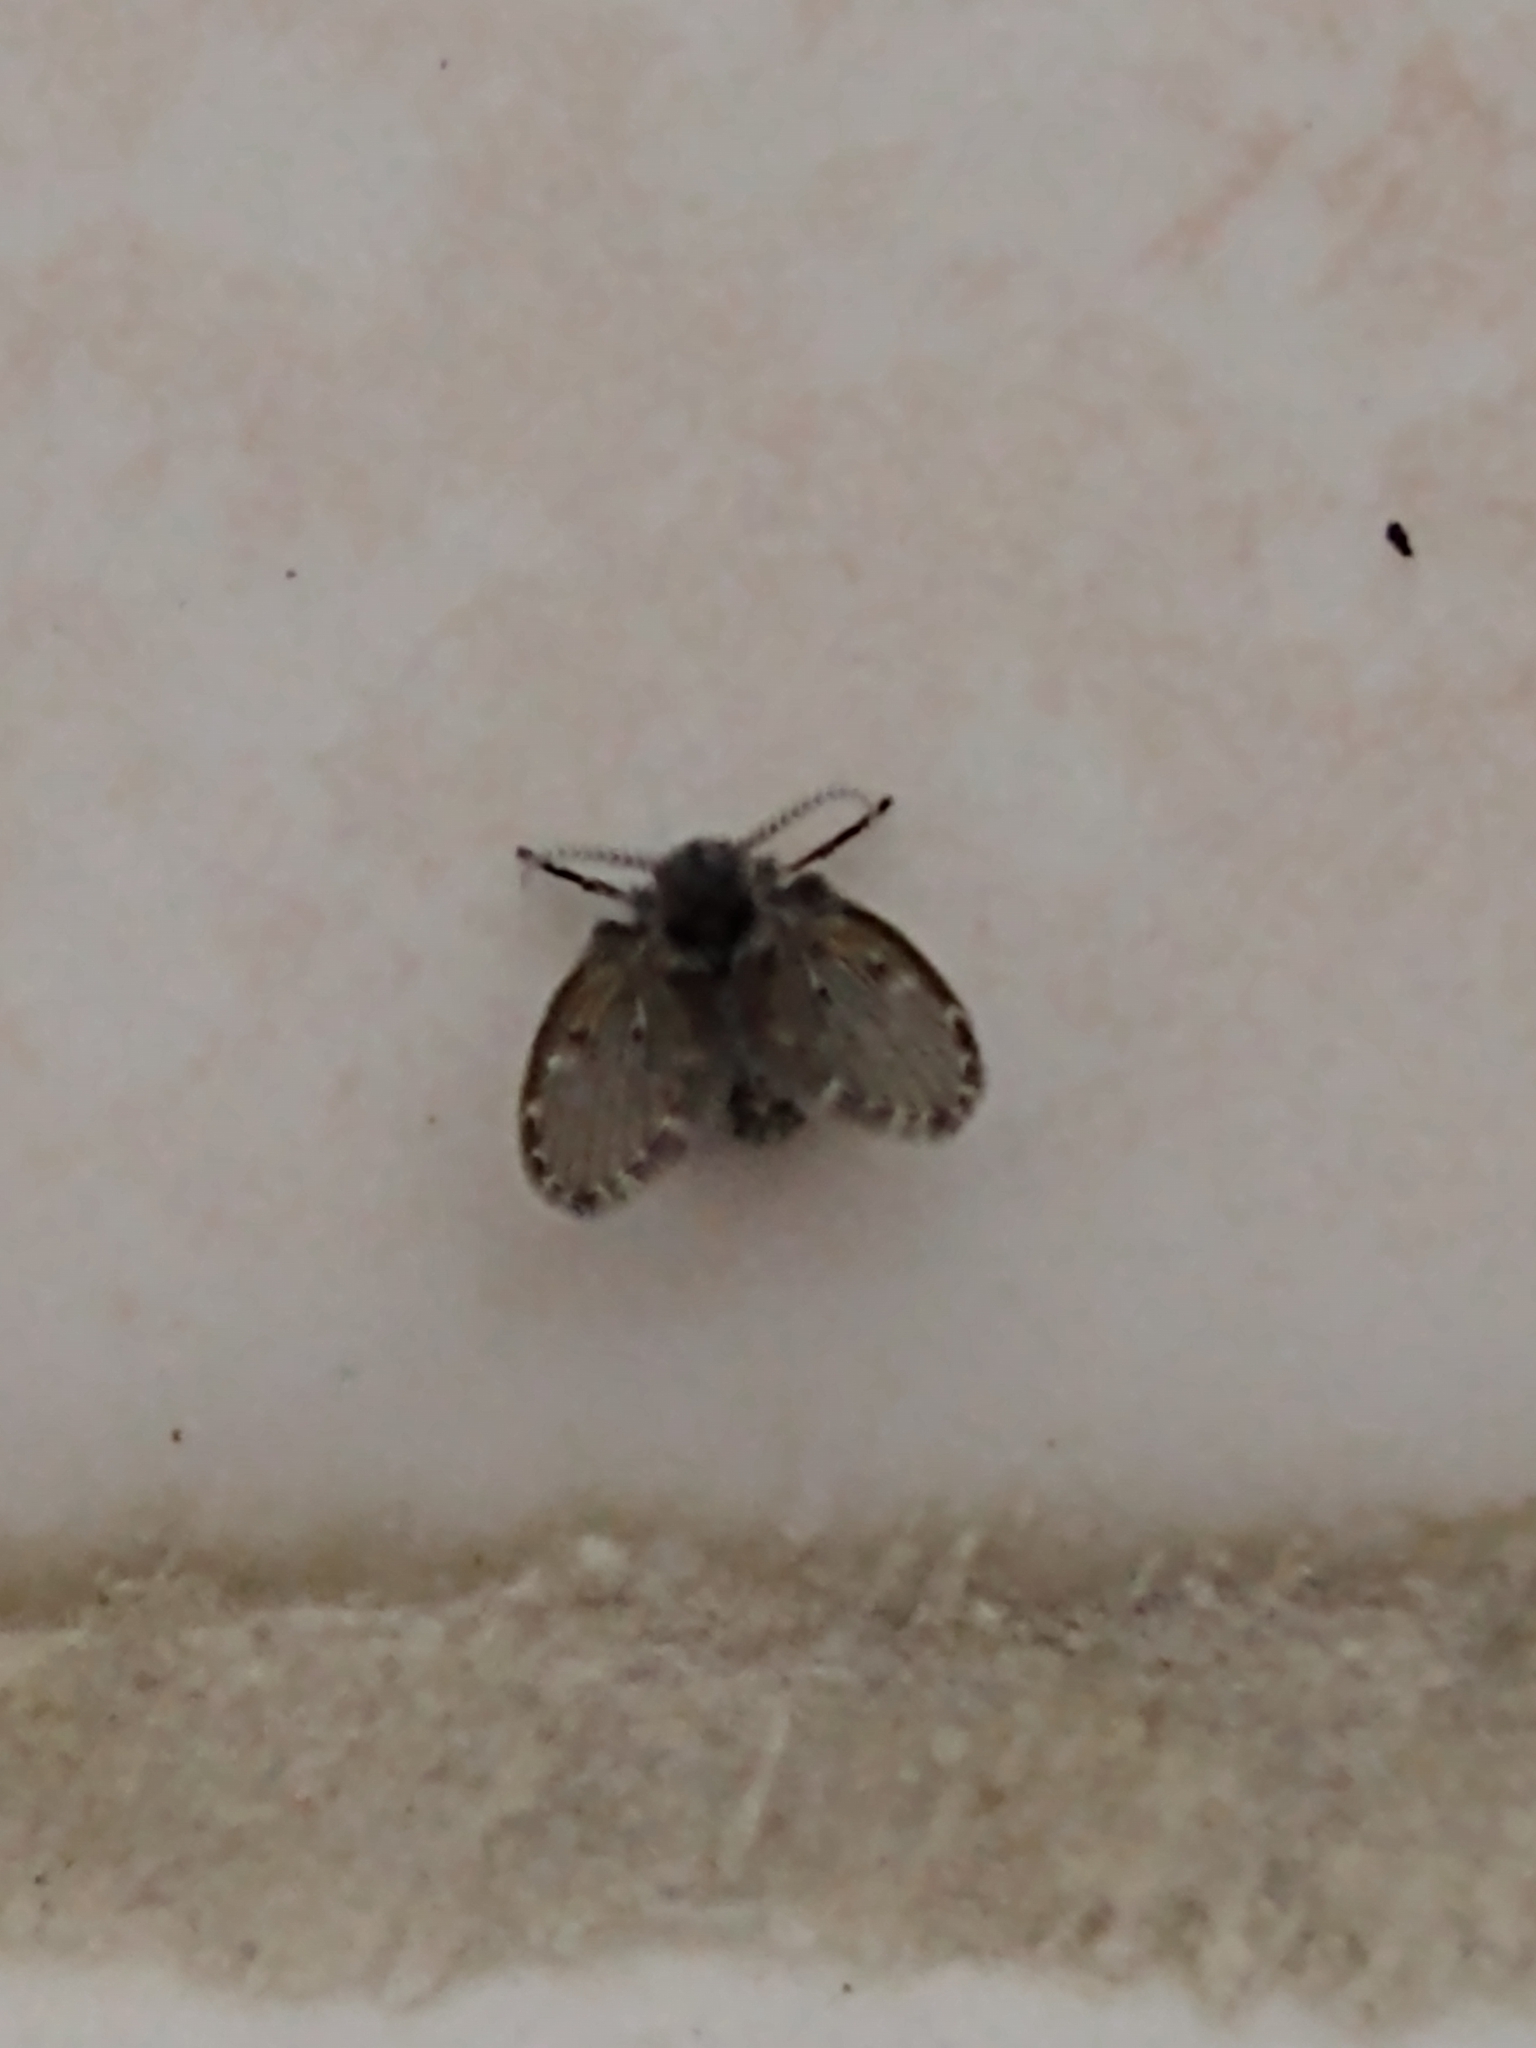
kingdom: Animalia
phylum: Arthropoda
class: Insecta
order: Diptera
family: Psychodidae
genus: Clogmia
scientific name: Clogmia albipunctatus
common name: White-spotted moth fly
